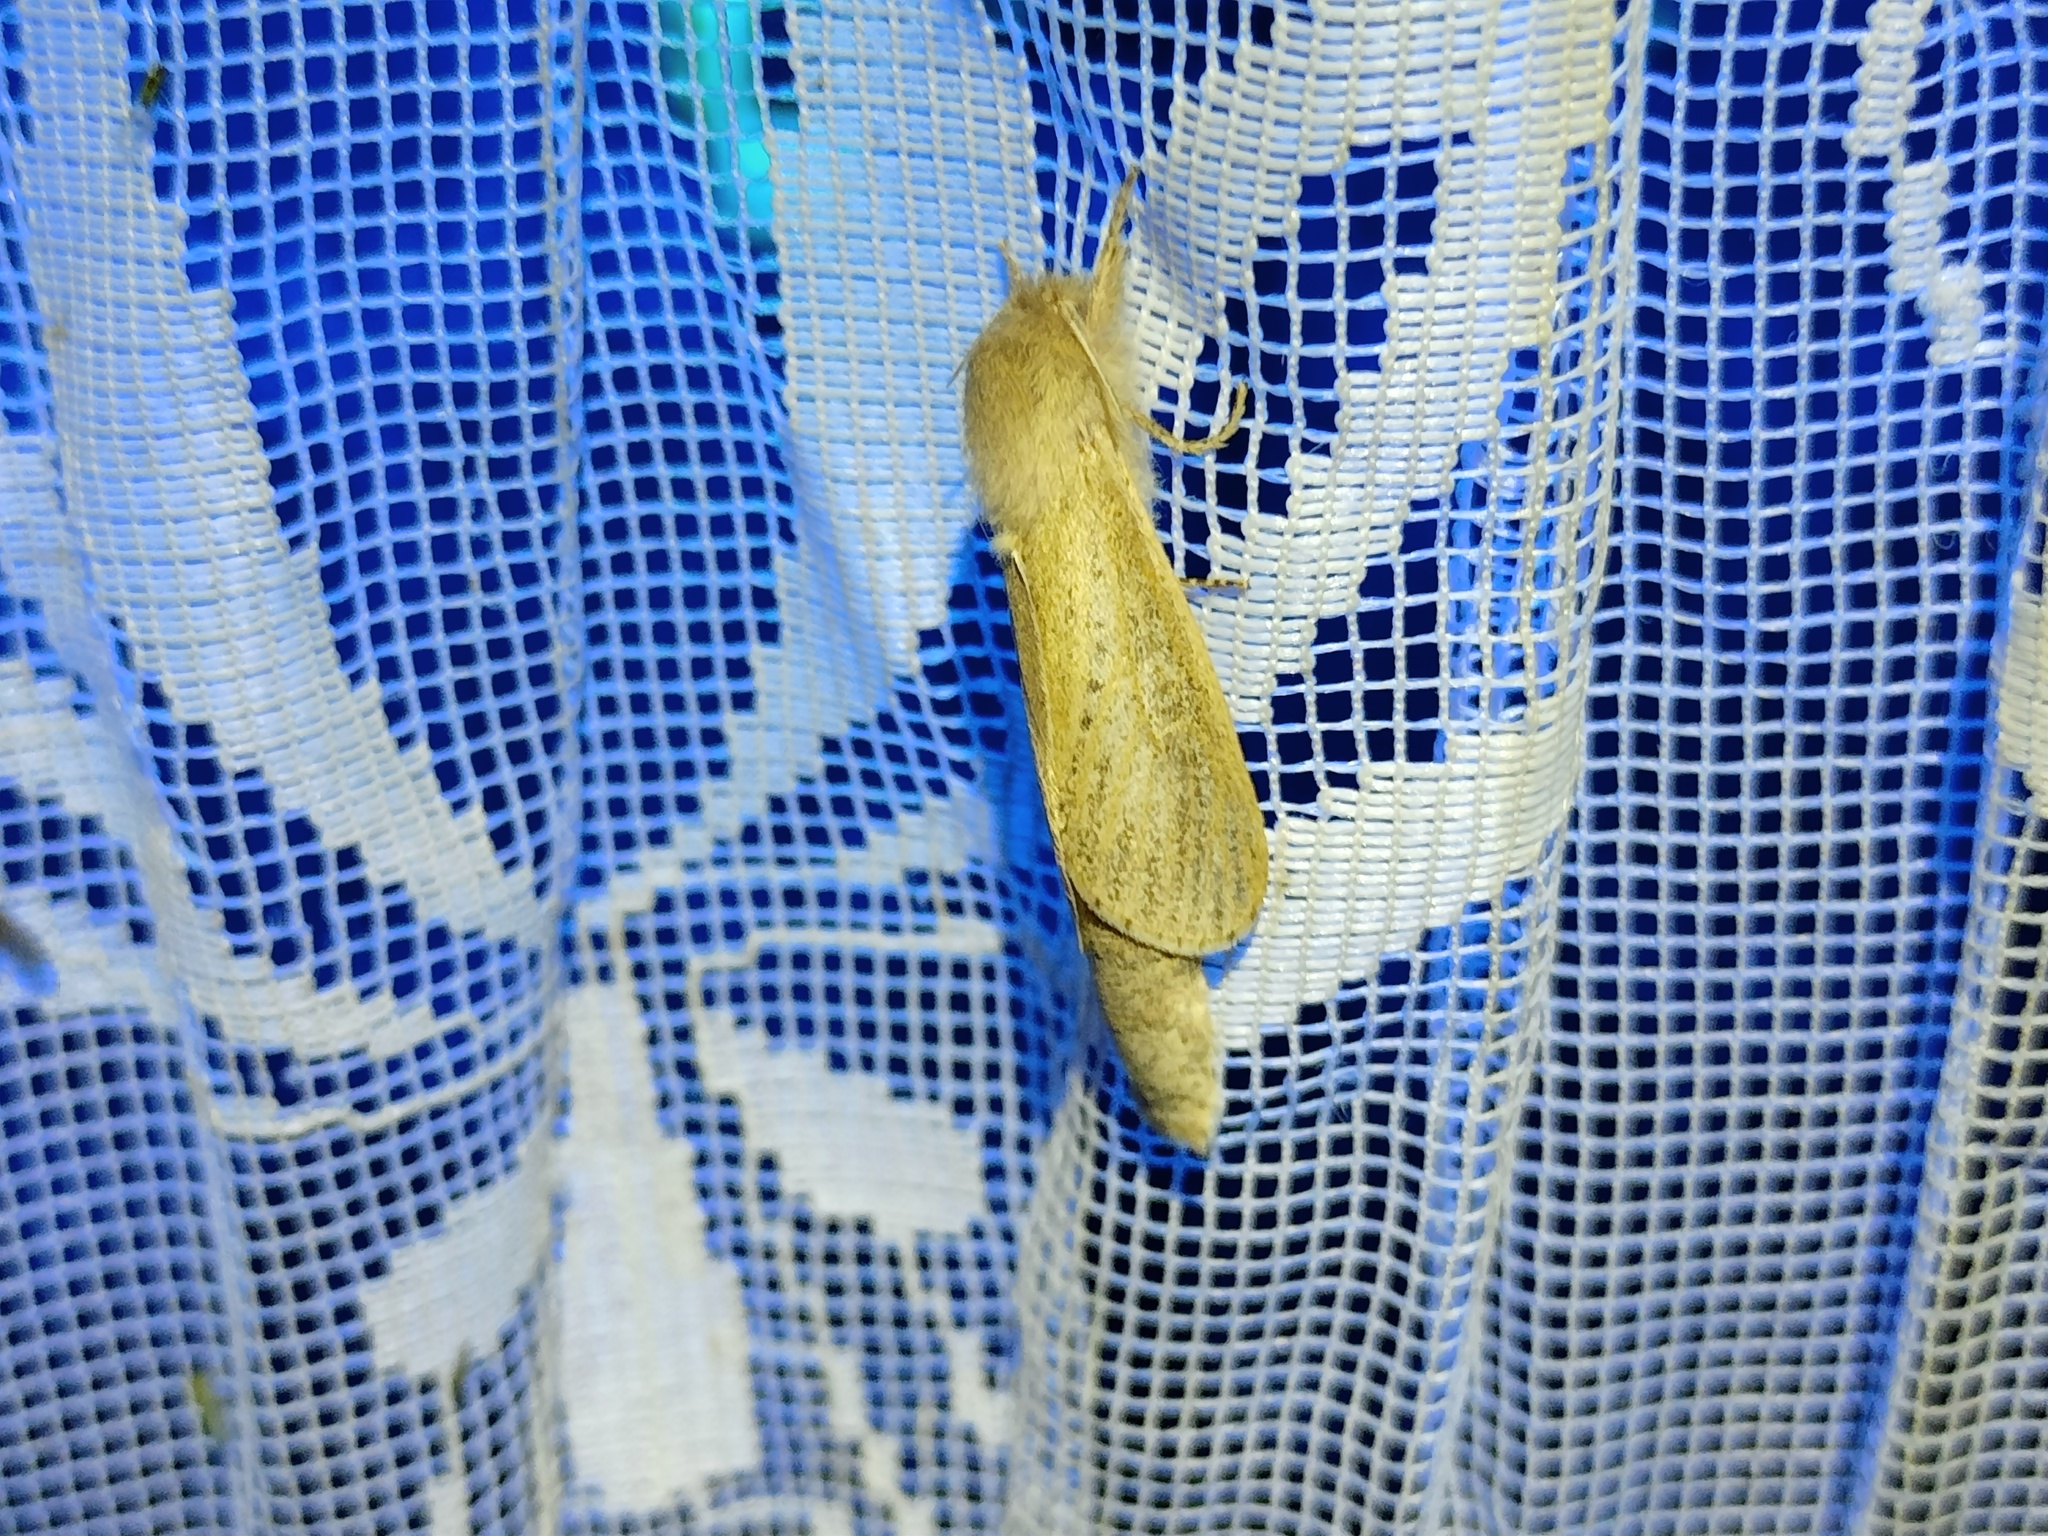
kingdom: Animalia
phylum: Arthropoda
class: Insecta
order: Lepidoptera
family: Cossidae
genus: Phragmataecia
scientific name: Phragmataecia castaneae
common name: Reed leopard
